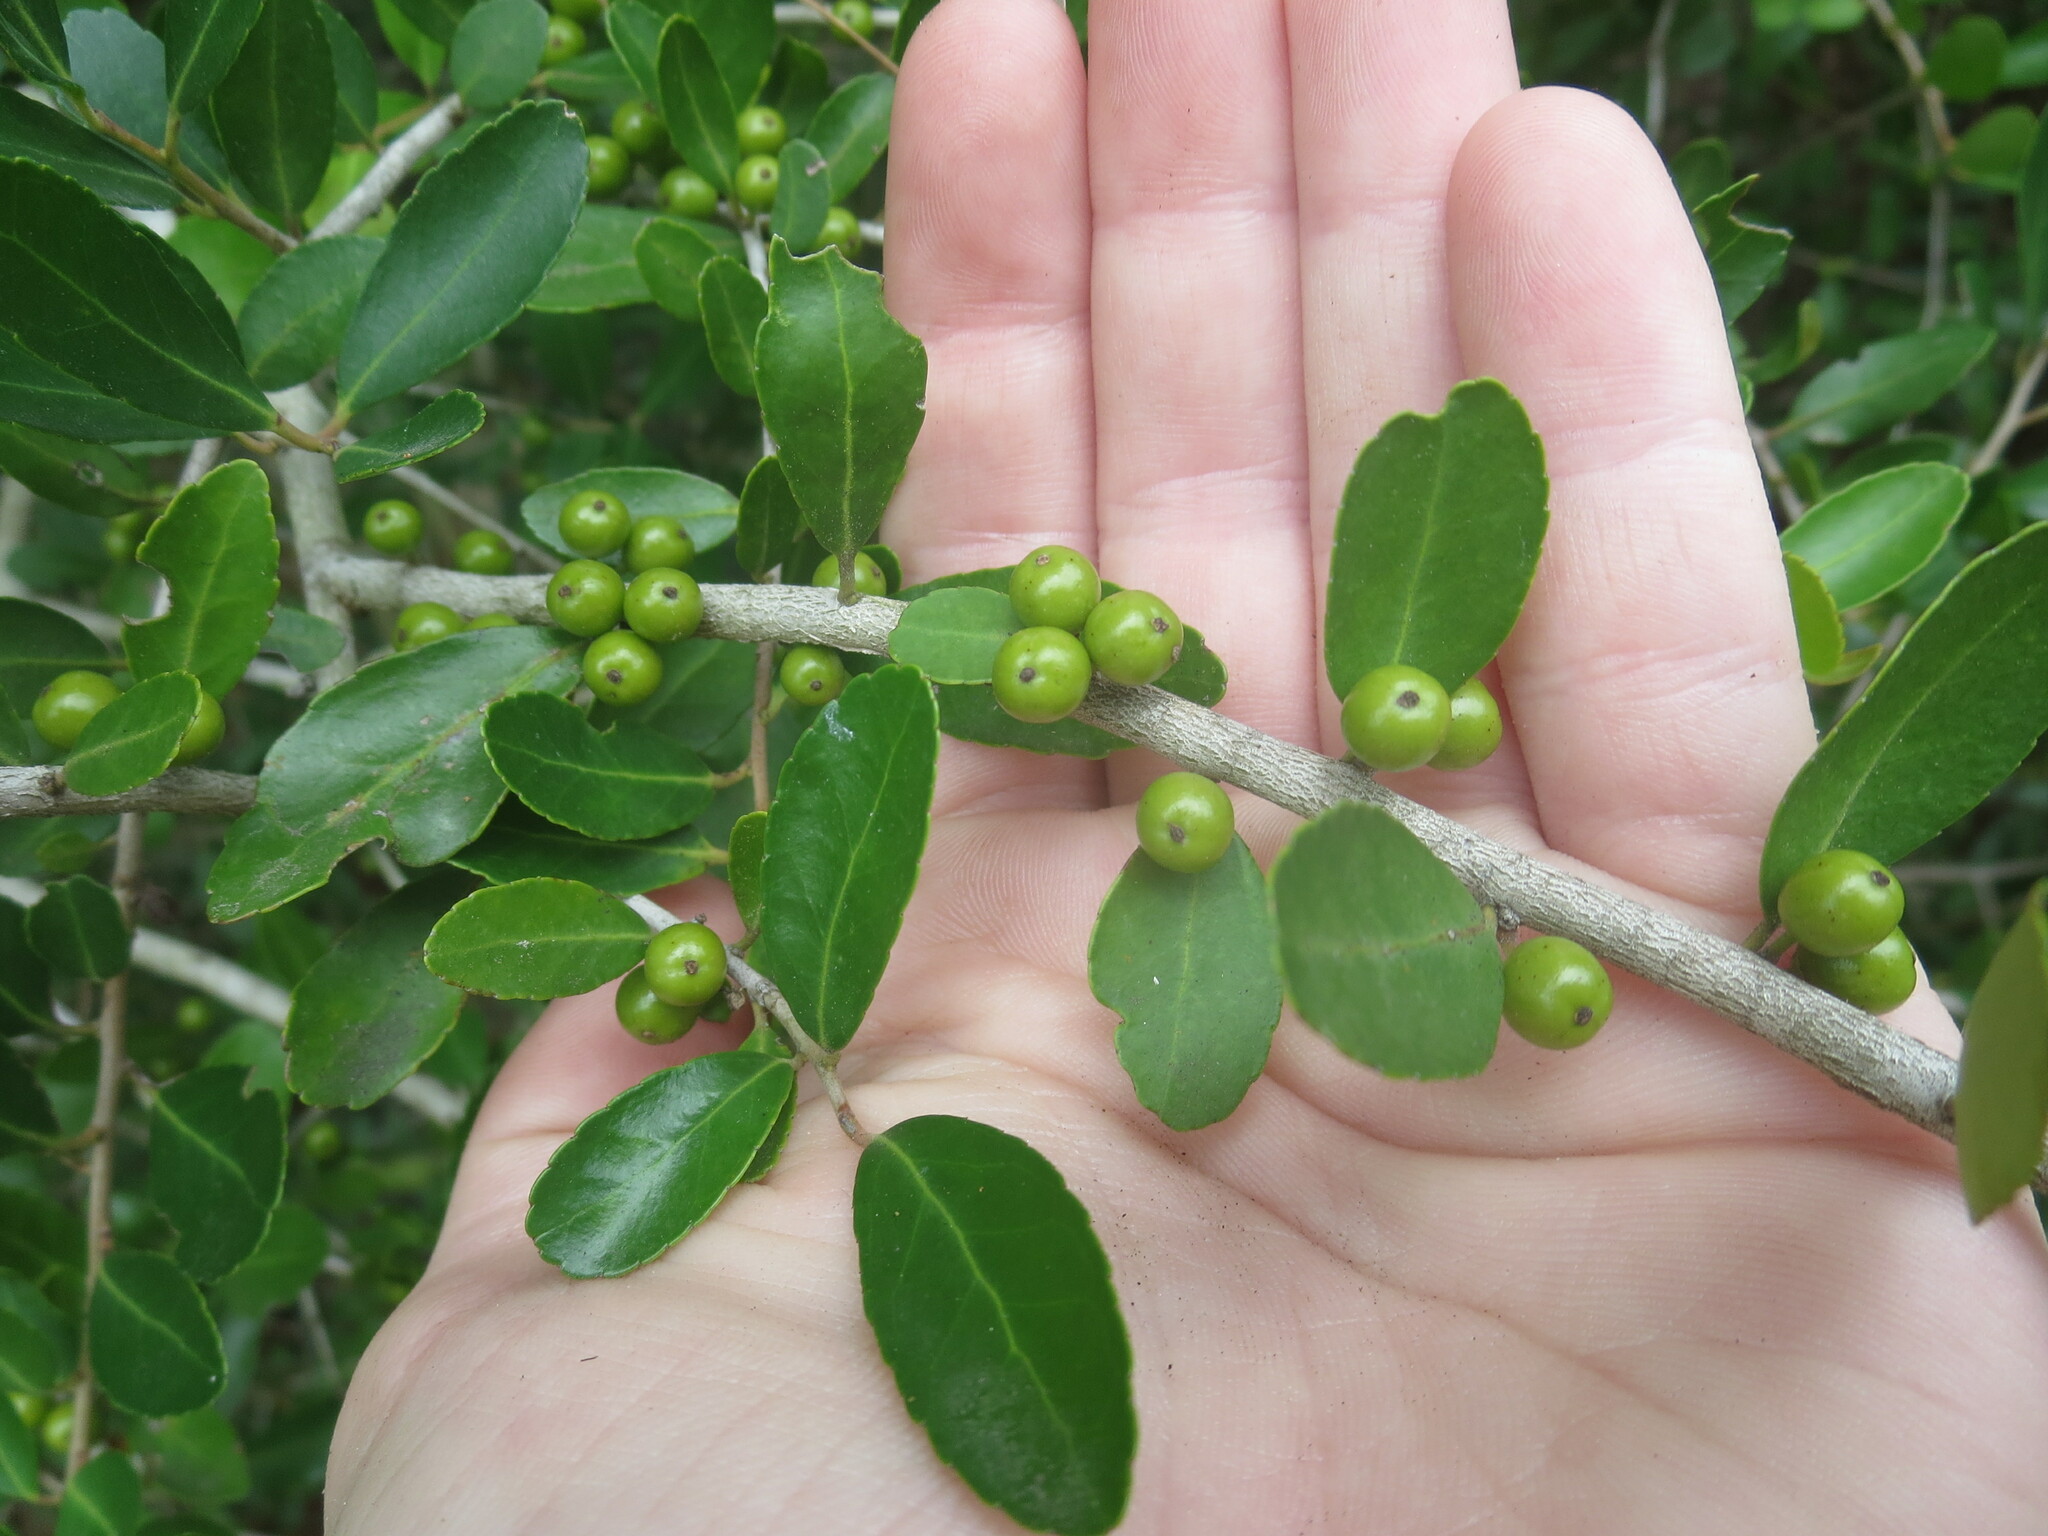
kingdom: Plantae
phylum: Tracheophyta
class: Magnoliopsida
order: Aquifoliales
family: Aquifoliaceae
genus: Ilex
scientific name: Ilex vomitoria
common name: Yaupon holly
